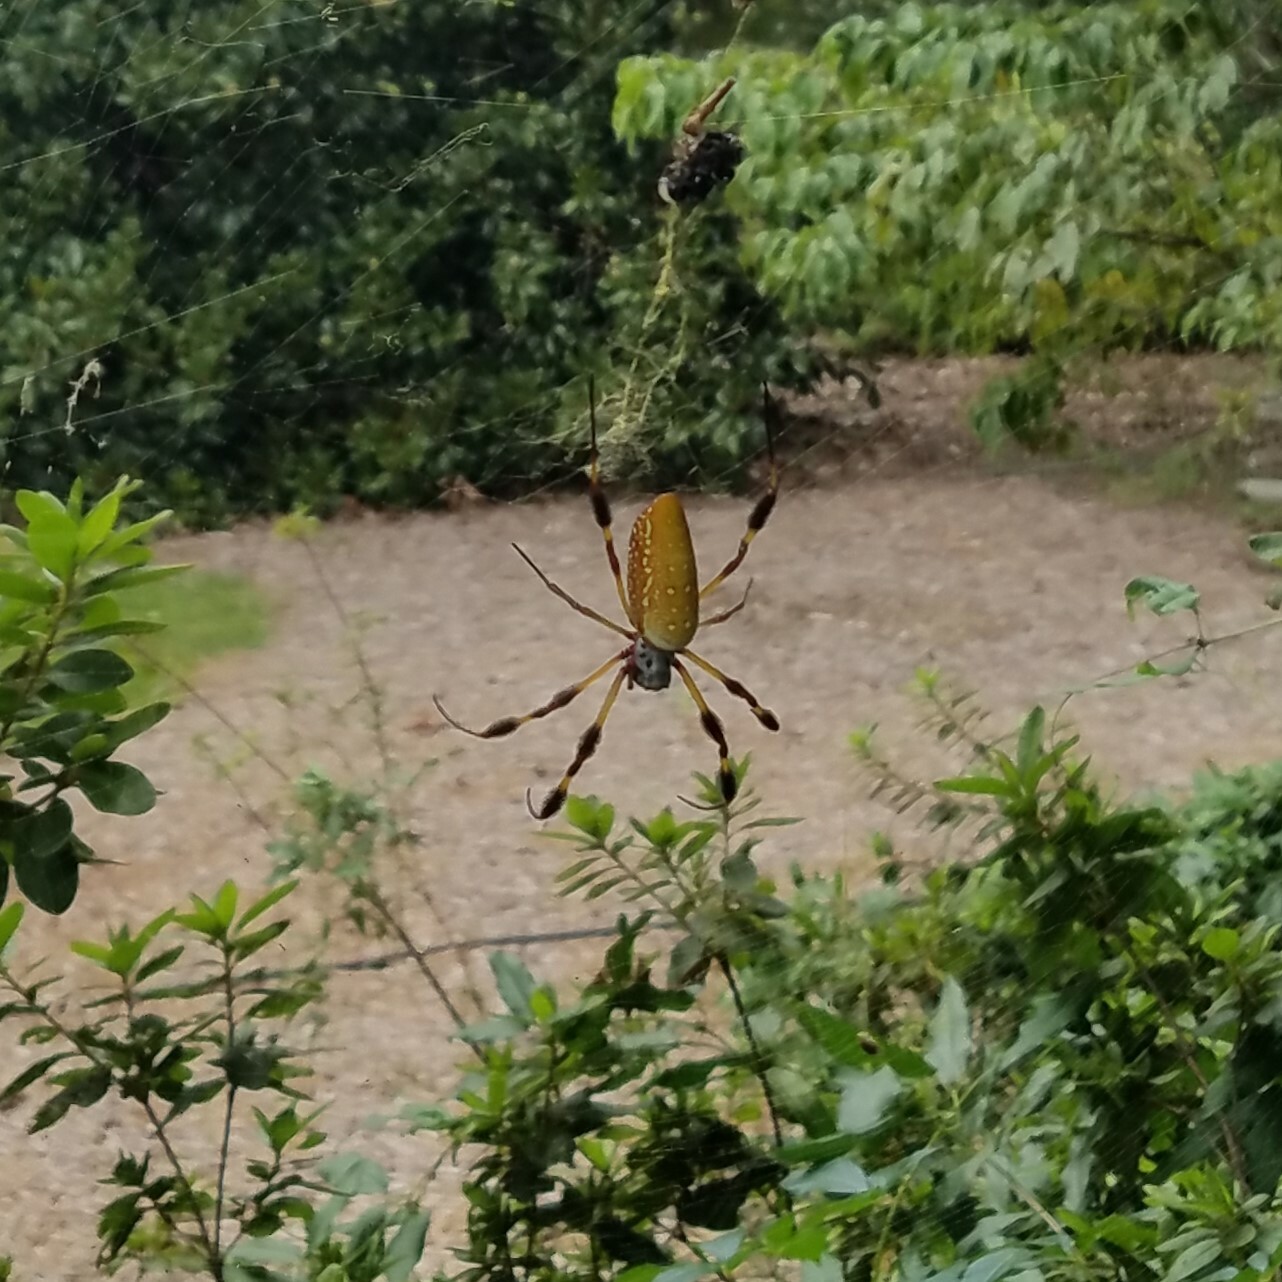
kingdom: Animalia
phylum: Arthropoda
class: Arachnida
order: Araneae
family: Araneidae
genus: Trichonephila
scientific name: Trichonephila clavipes
